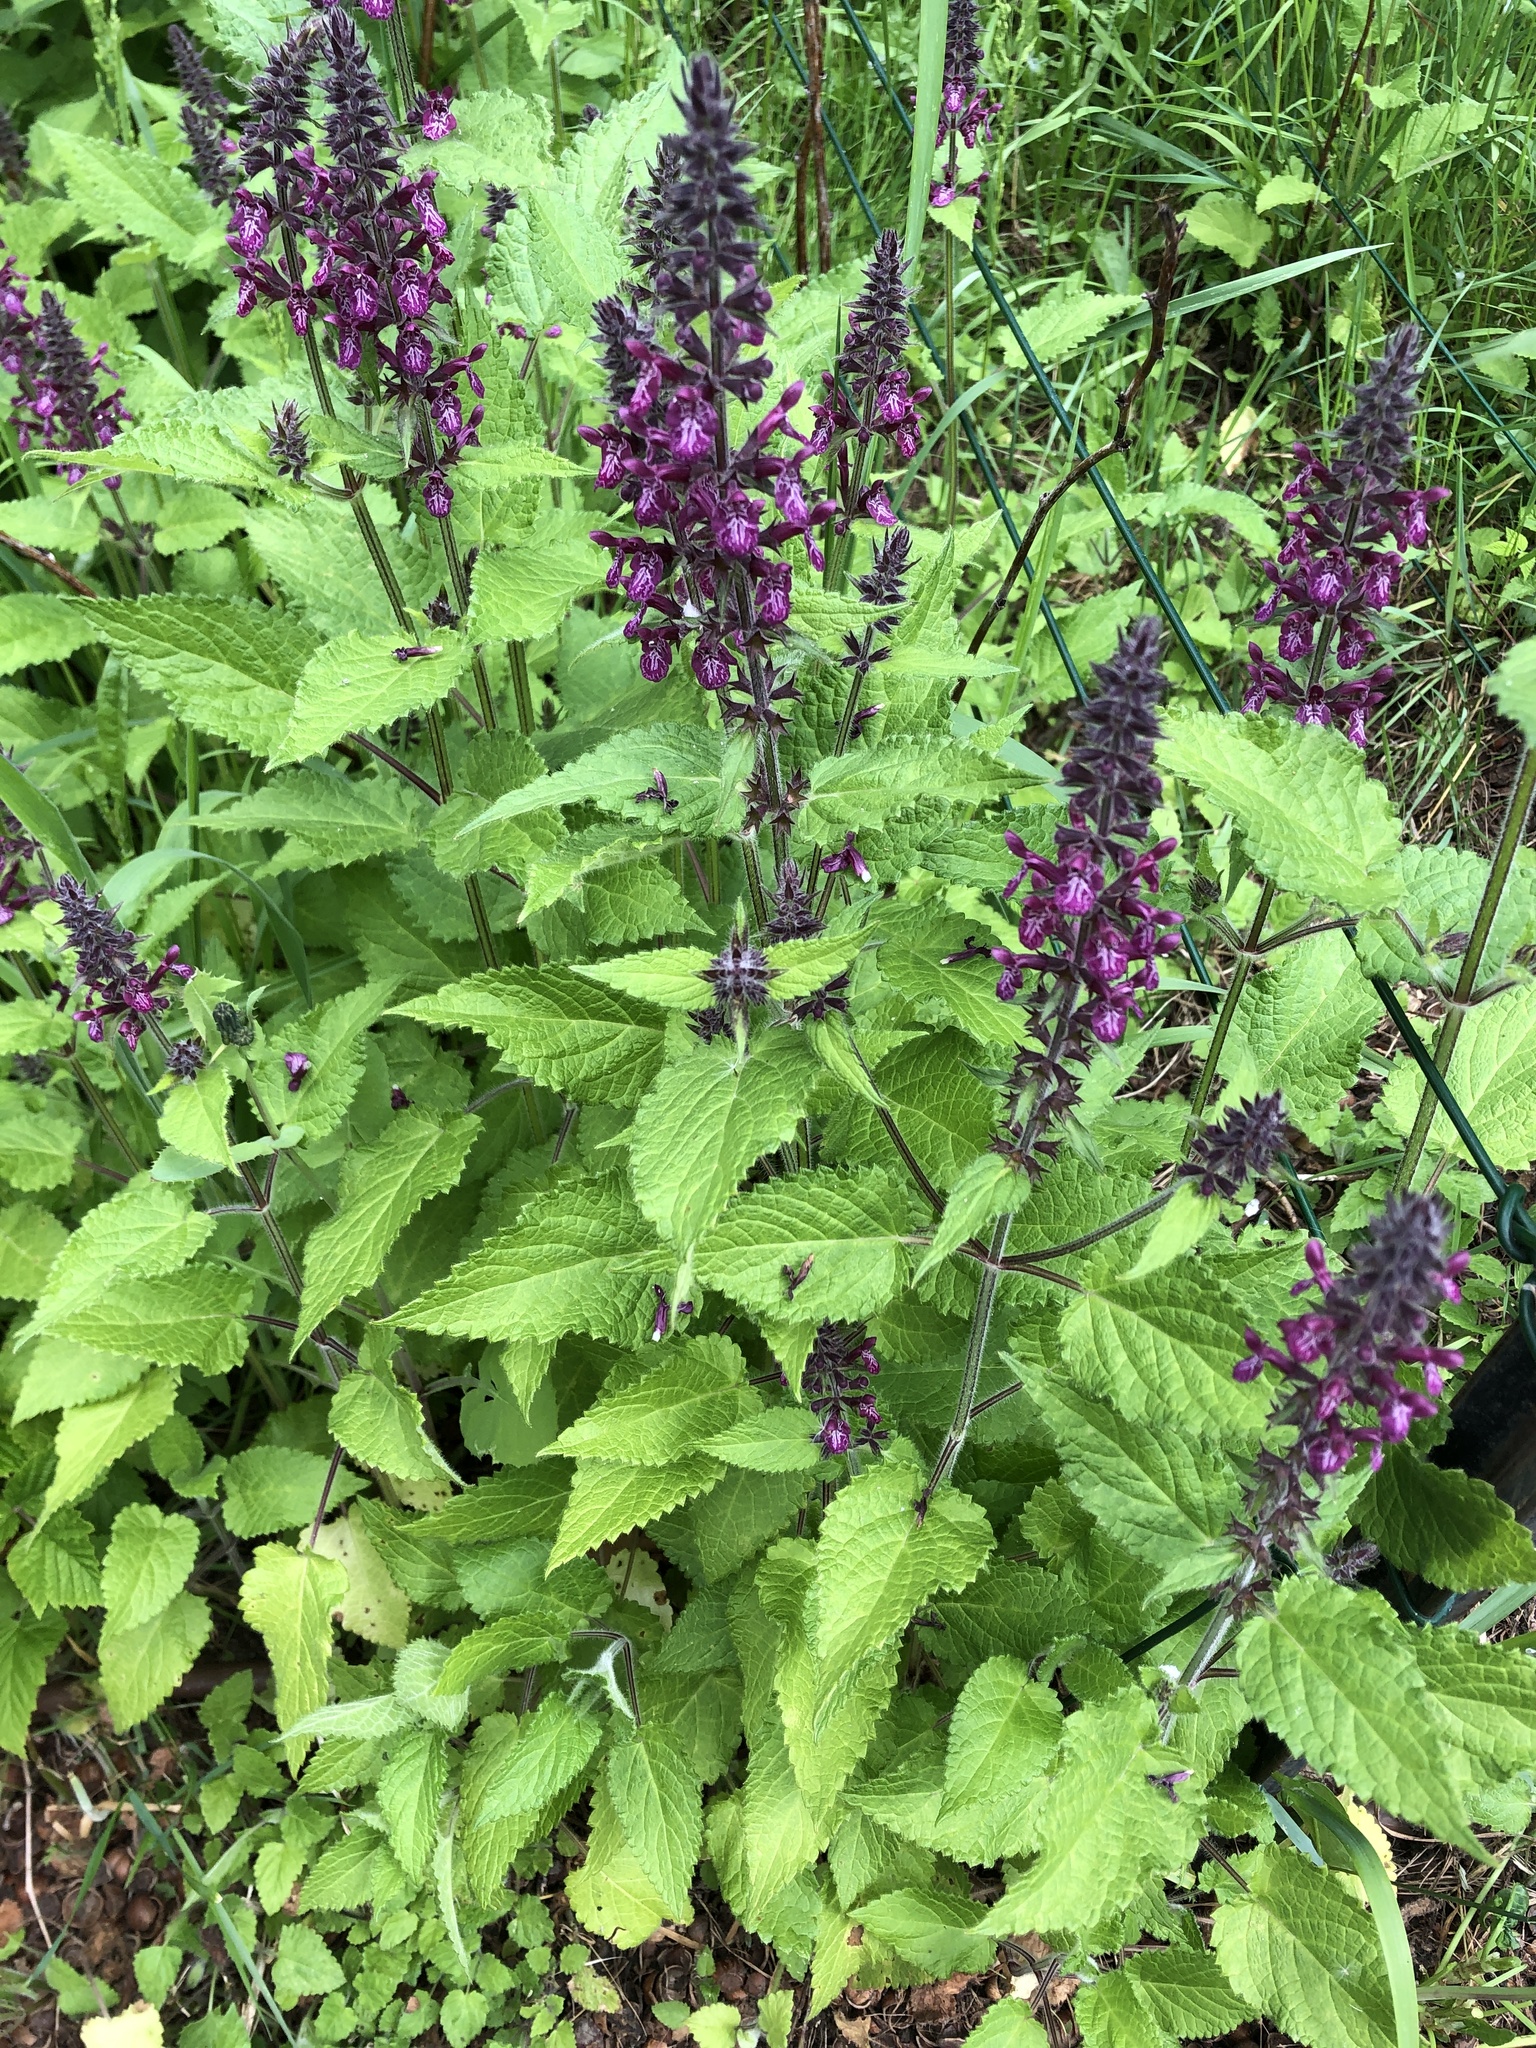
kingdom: Plantae
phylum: Tracheophyta
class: Magnoliopsida
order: Lamiales
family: Lamiaceae
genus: Stachys
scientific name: Stachys sylvatica
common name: Hedge woundwort
